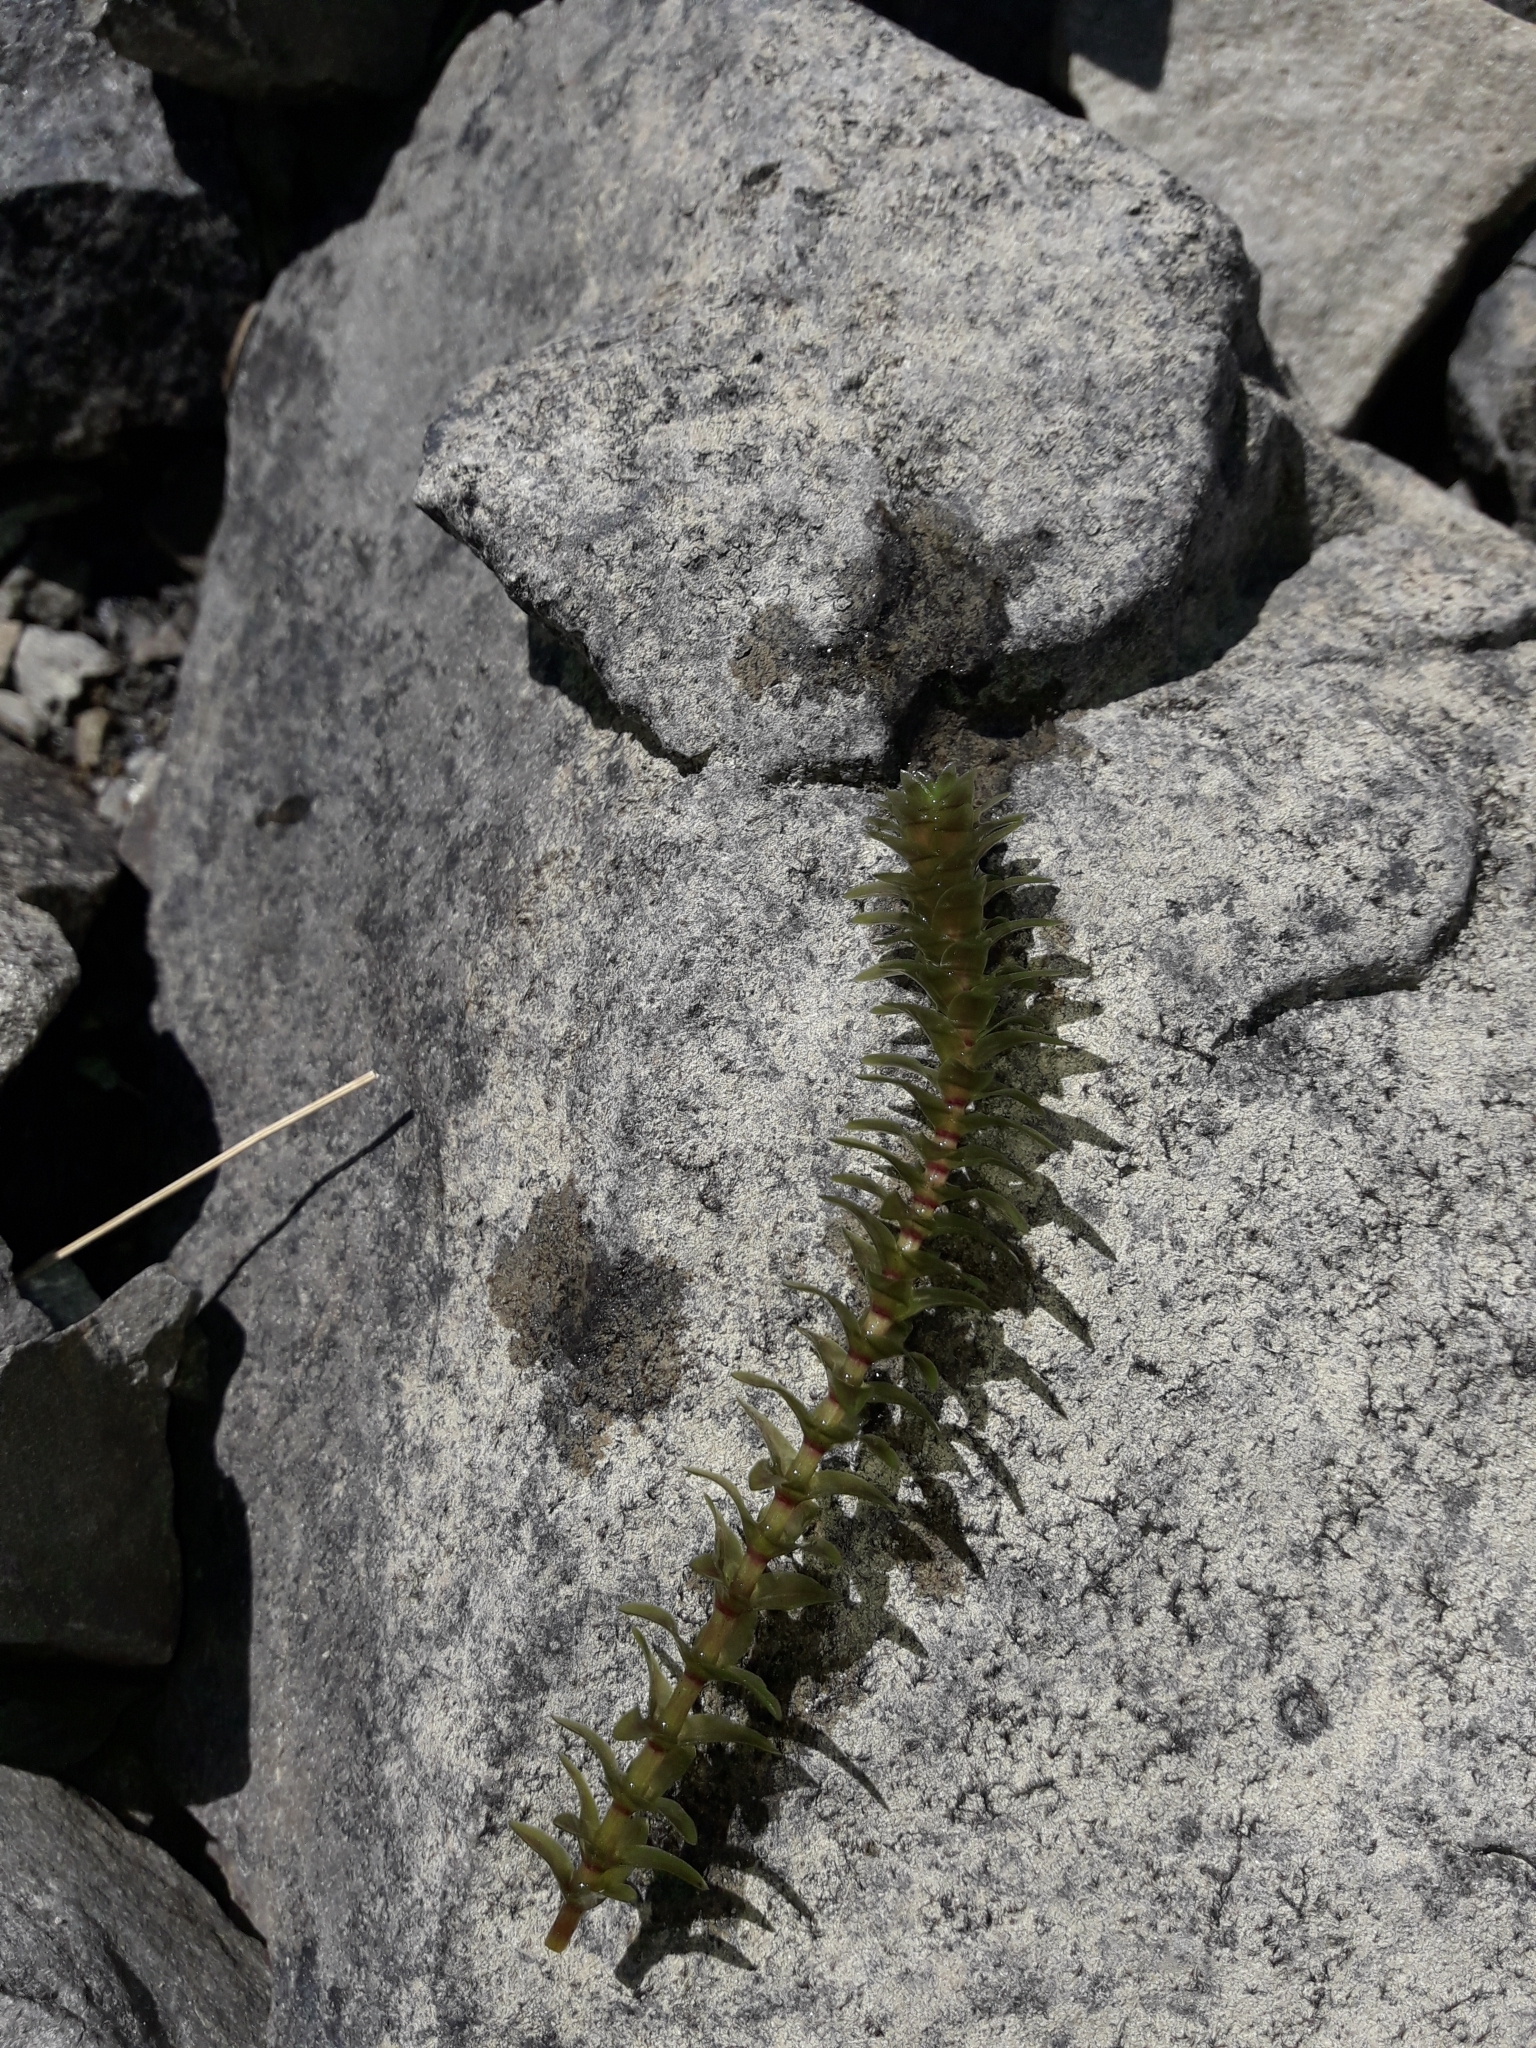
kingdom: Plantae
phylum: Tracheophyta
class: Liliopsida
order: Alismatales
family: Hydrocharitaceae
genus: Elodea
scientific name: Elodea canadensis
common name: Canadian waterweed
